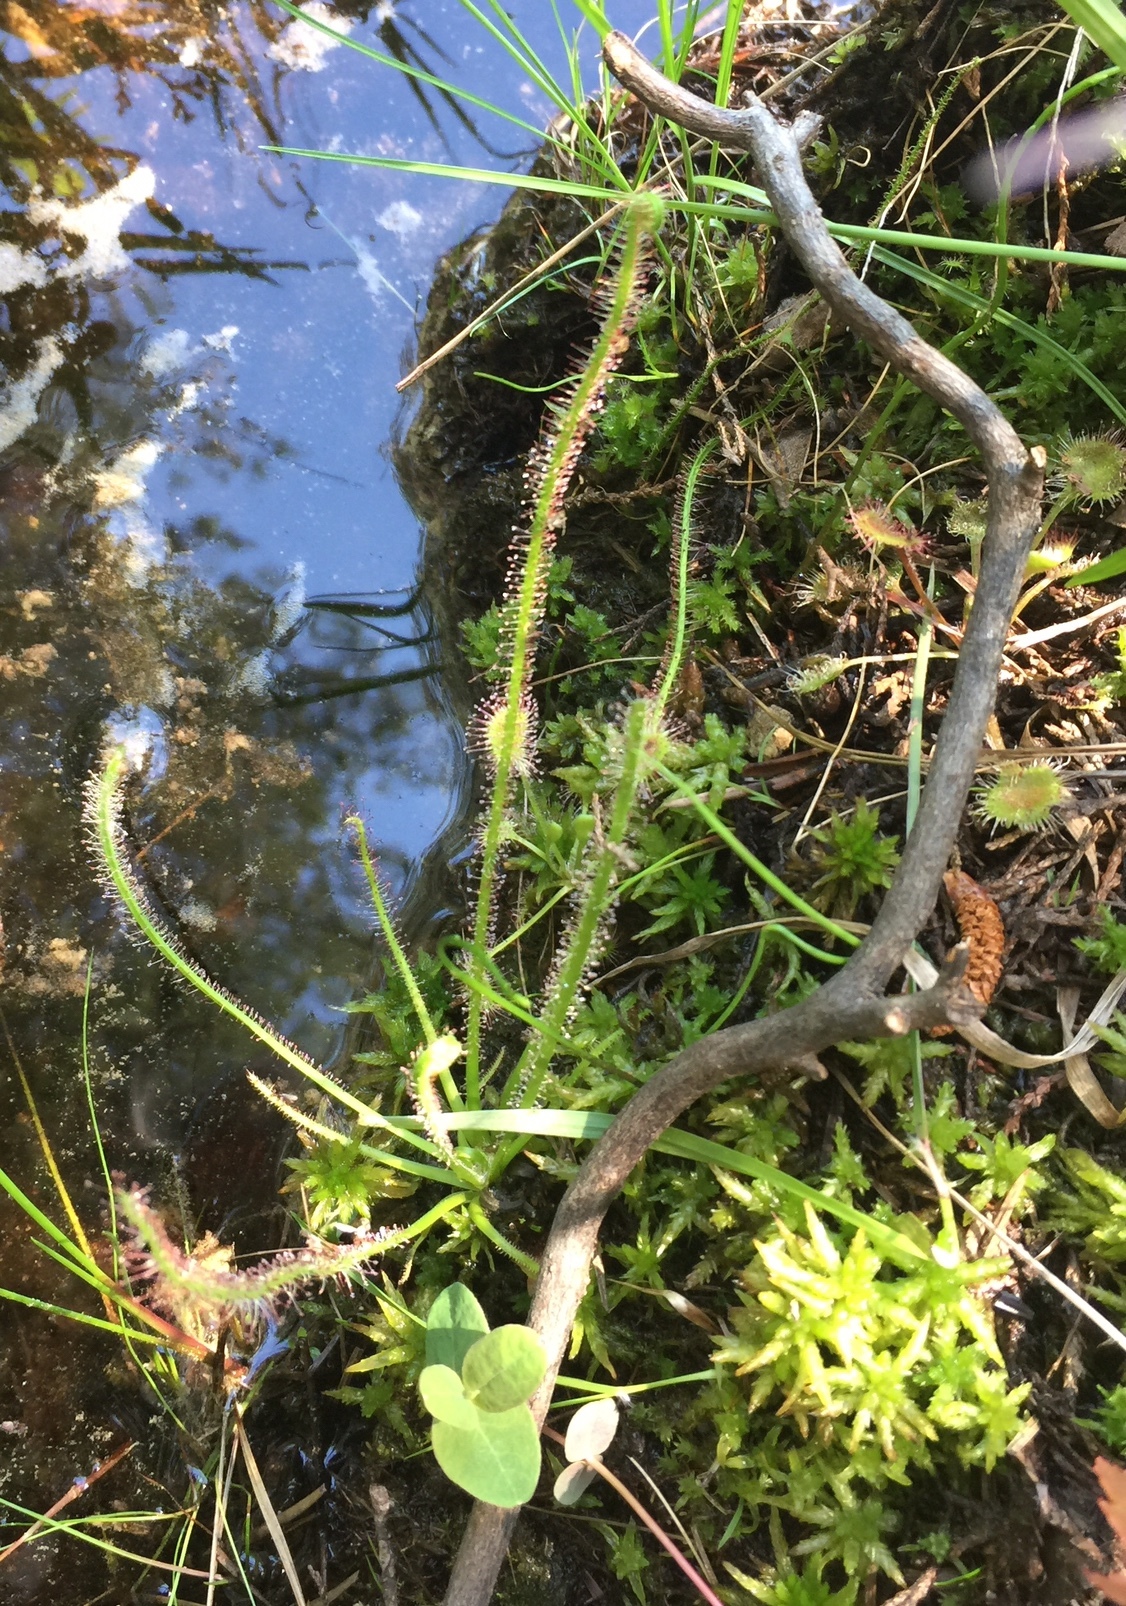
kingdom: Plantae
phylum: Tracheophyta
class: Magnoliopsida
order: Caryophyllales
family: Droseraceae
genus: Drosera
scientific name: Drosera filiformis
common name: Dew-thread
